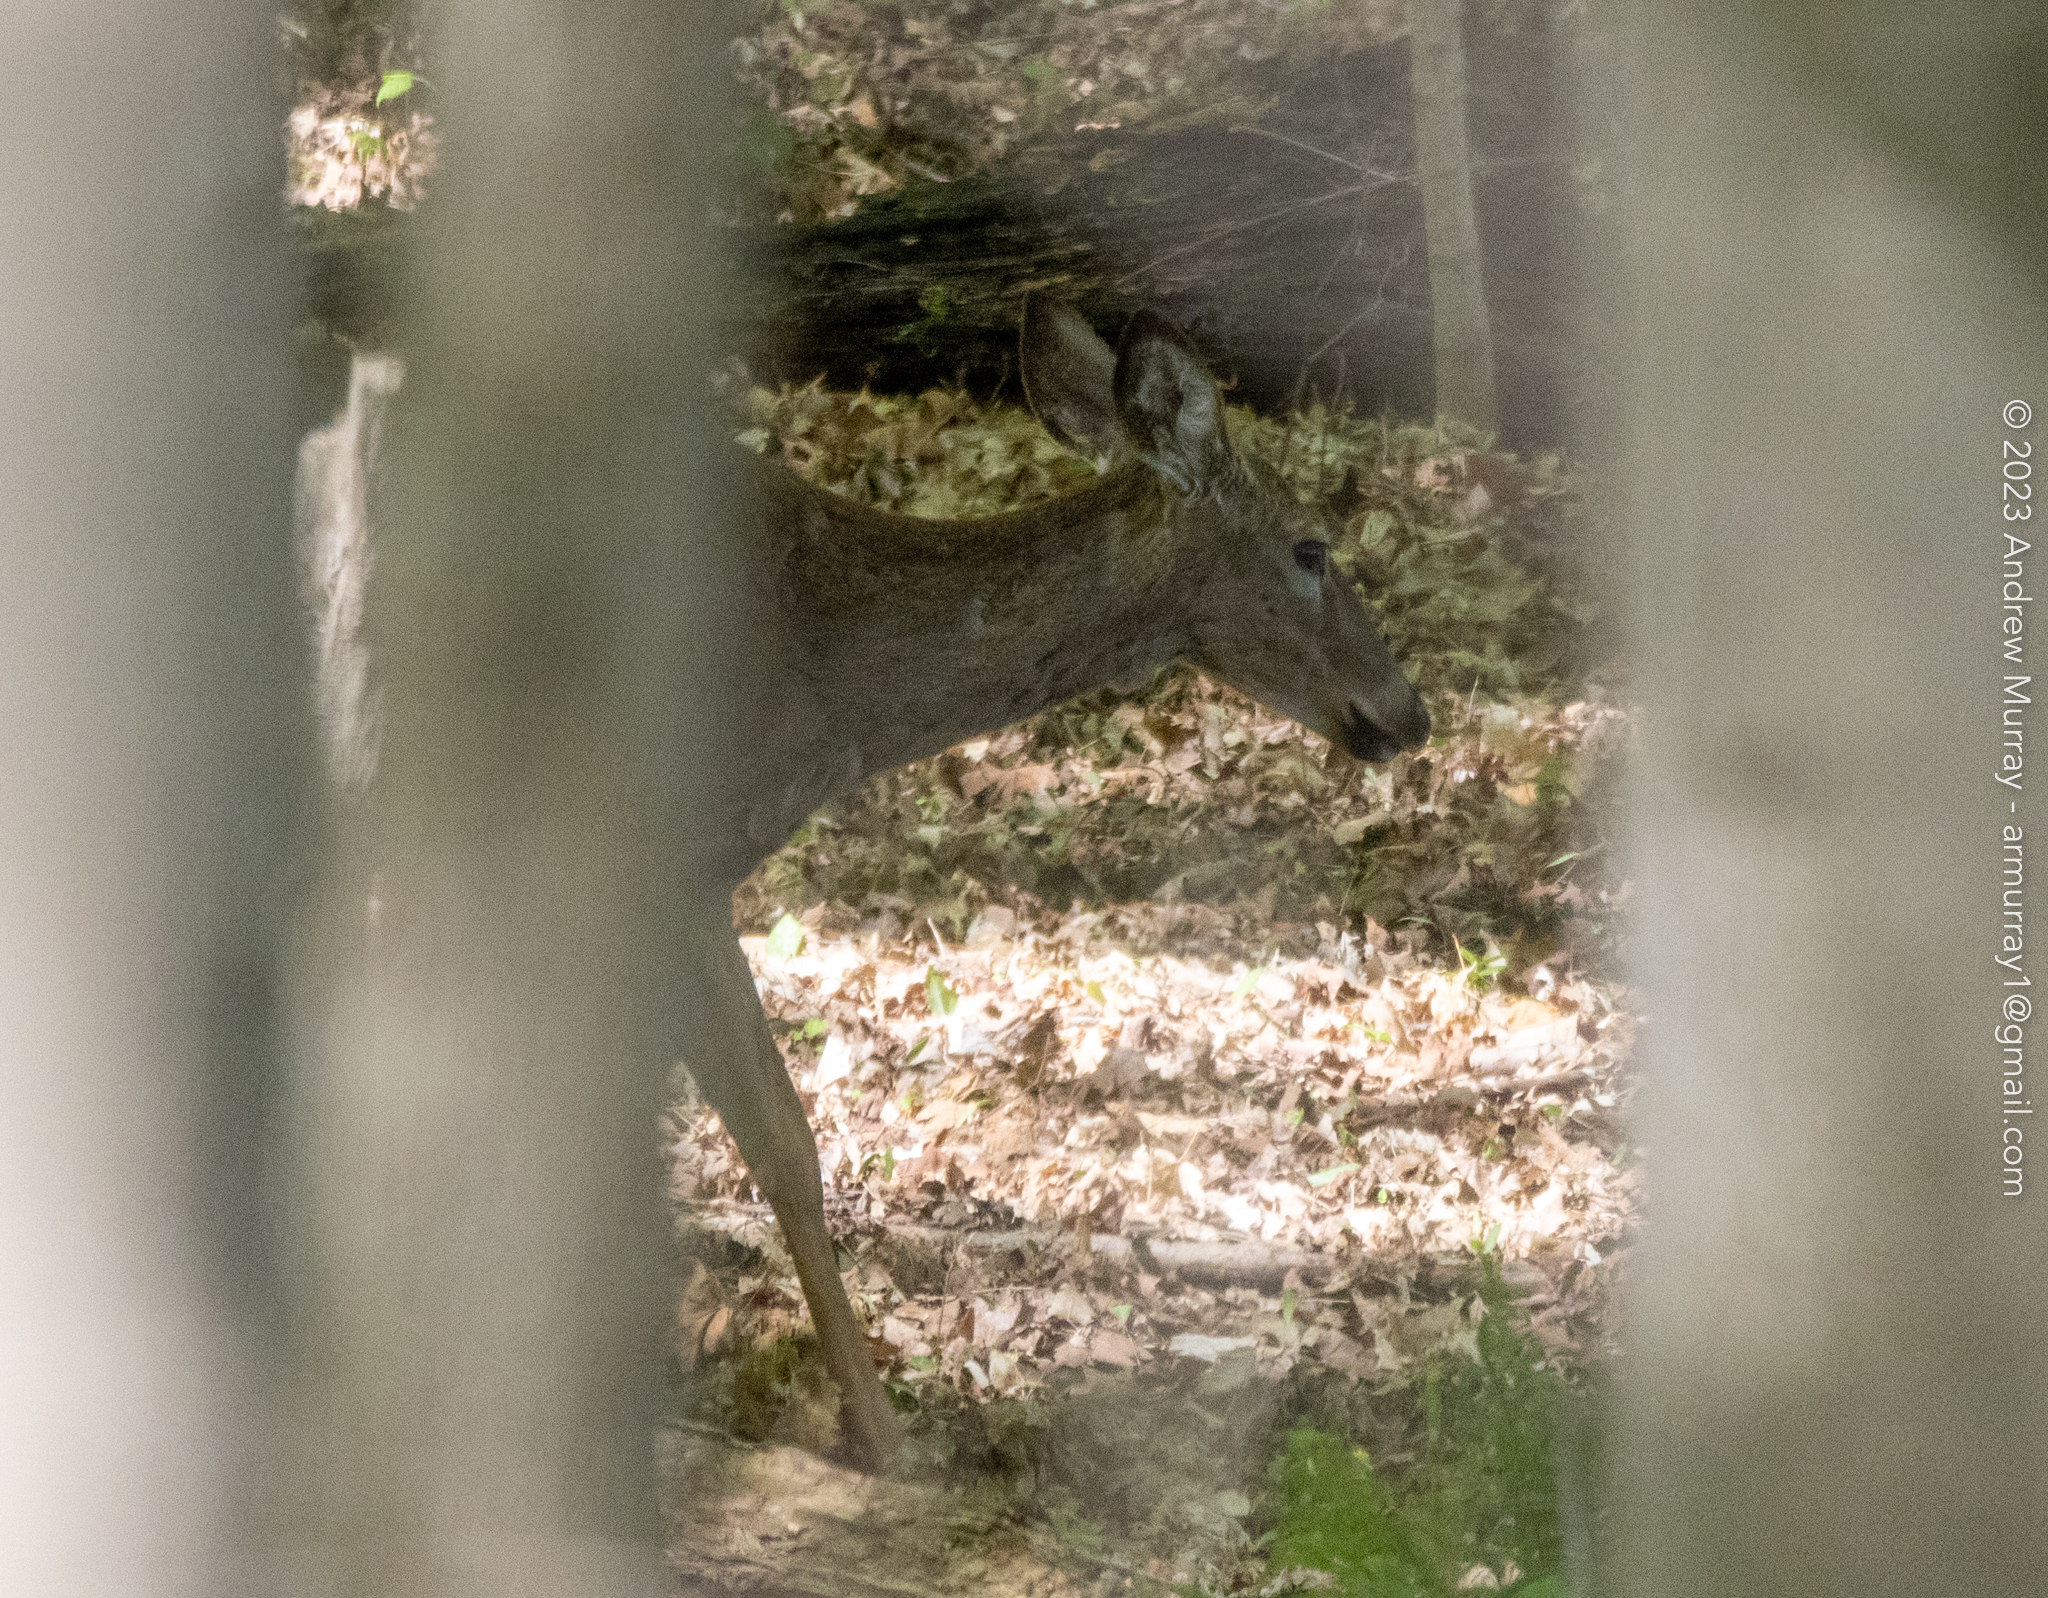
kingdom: Animalia
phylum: Chordata
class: Mammalia
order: Artiodactyla
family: Cervidae
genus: Odocoileus
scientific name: Odocoileus virginianus
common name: White-tailed deer
